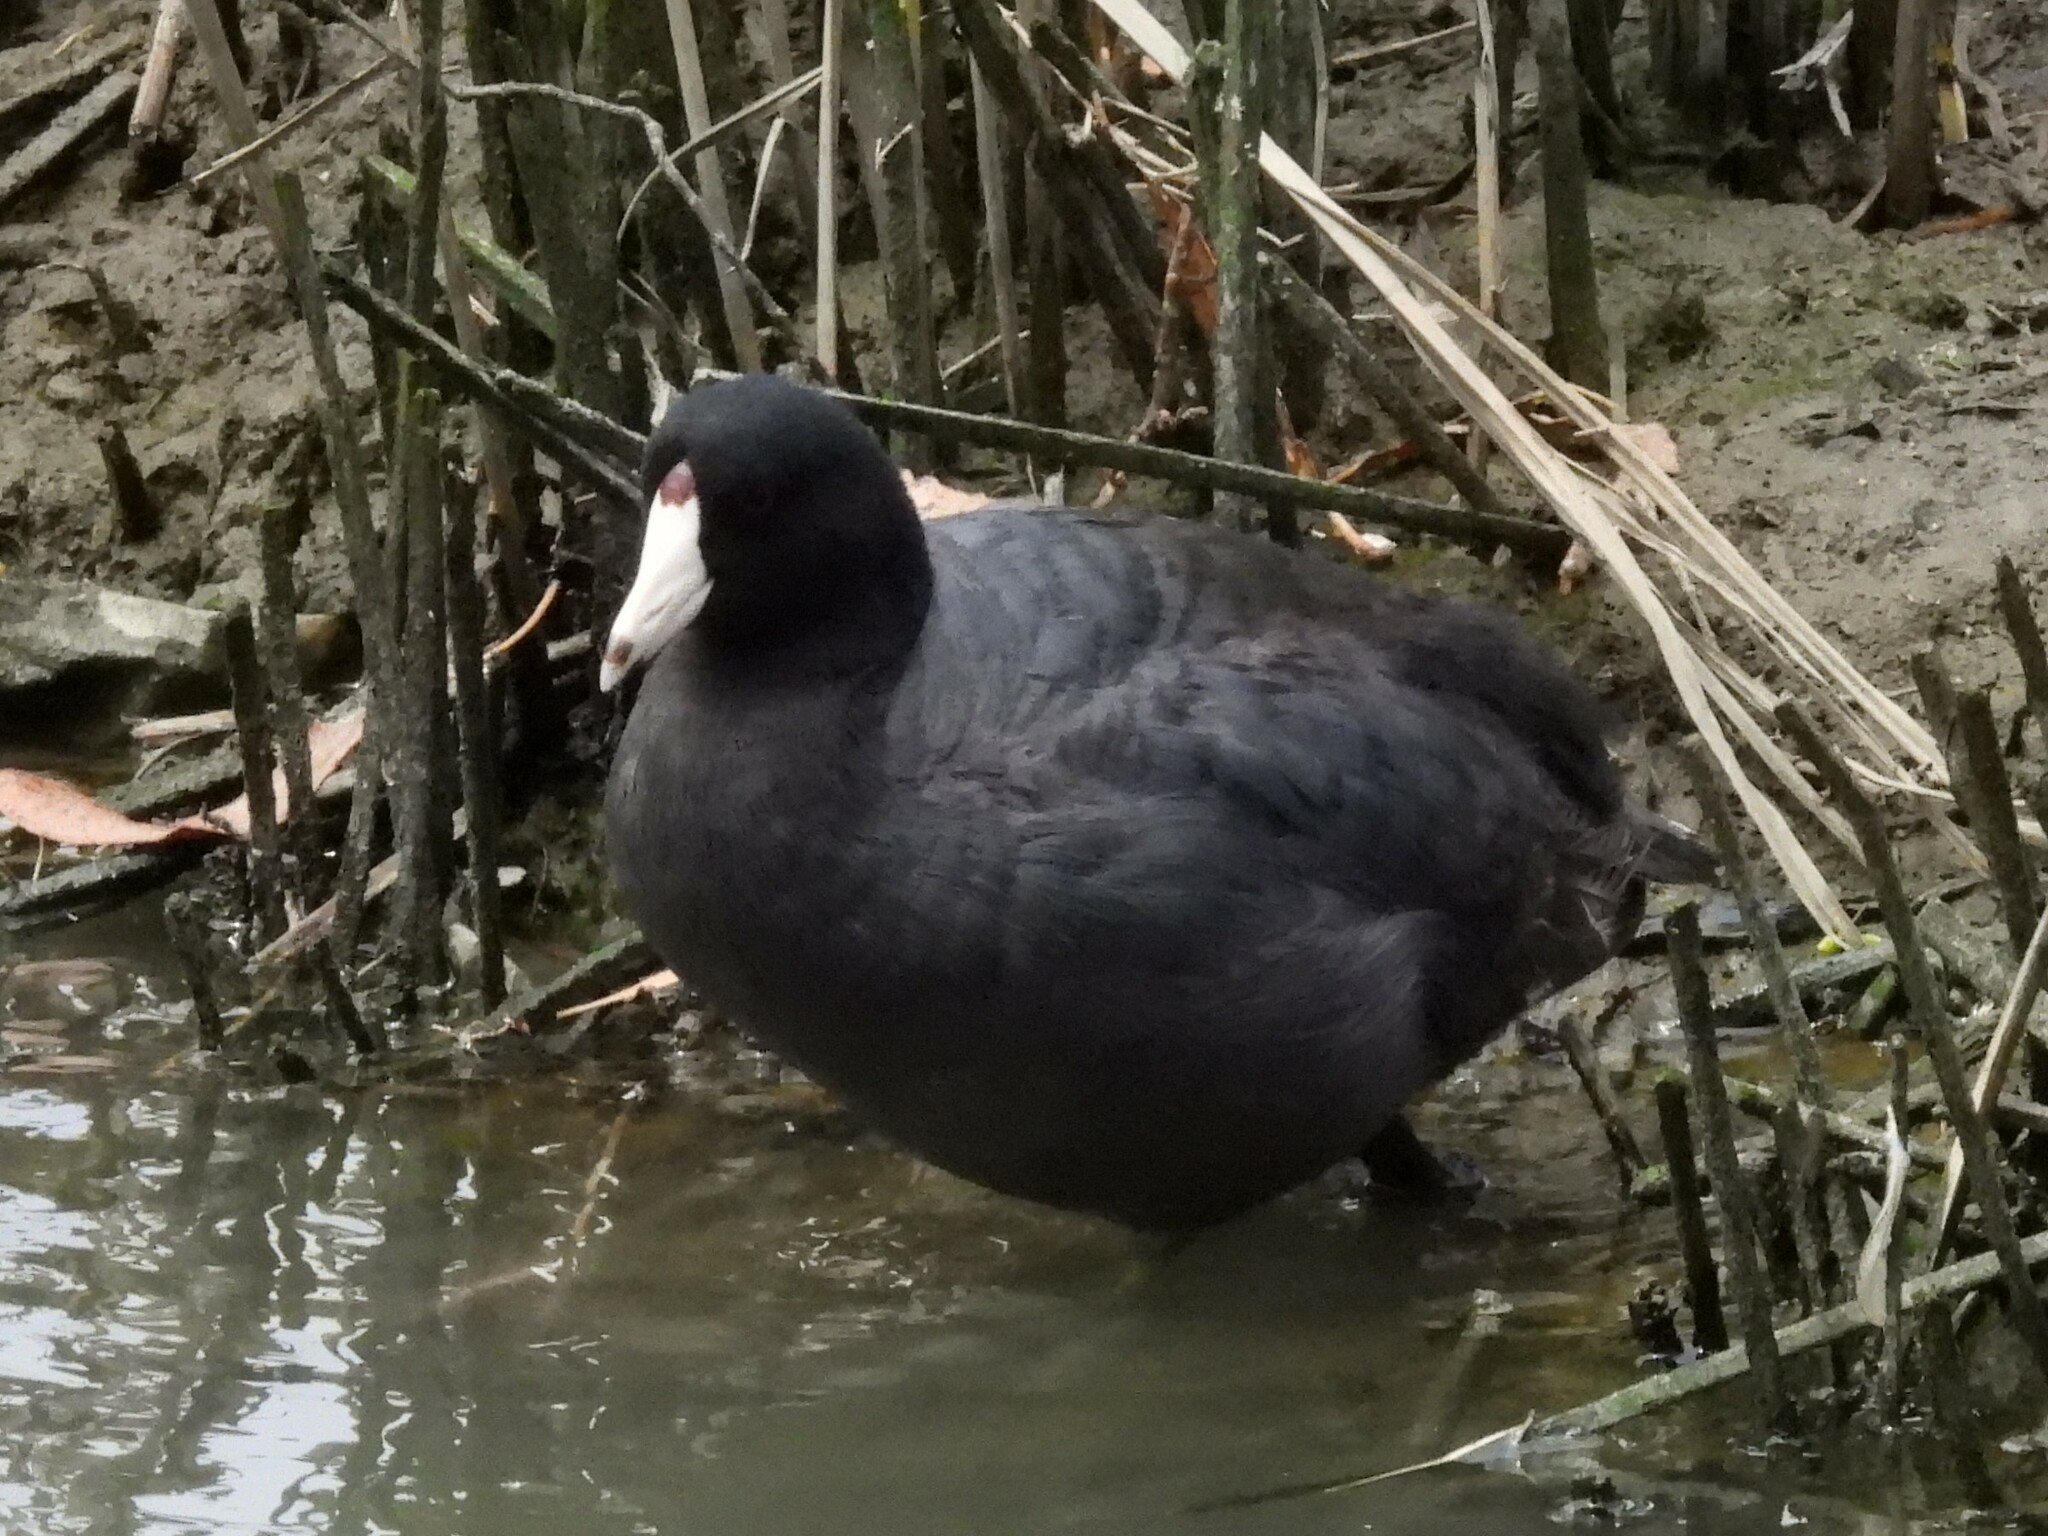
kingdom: Animalia
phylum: Chordata
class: Aves
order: Gruiformes
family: Rallidae
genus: Fulica
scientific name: Fulica americana
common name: American coot
